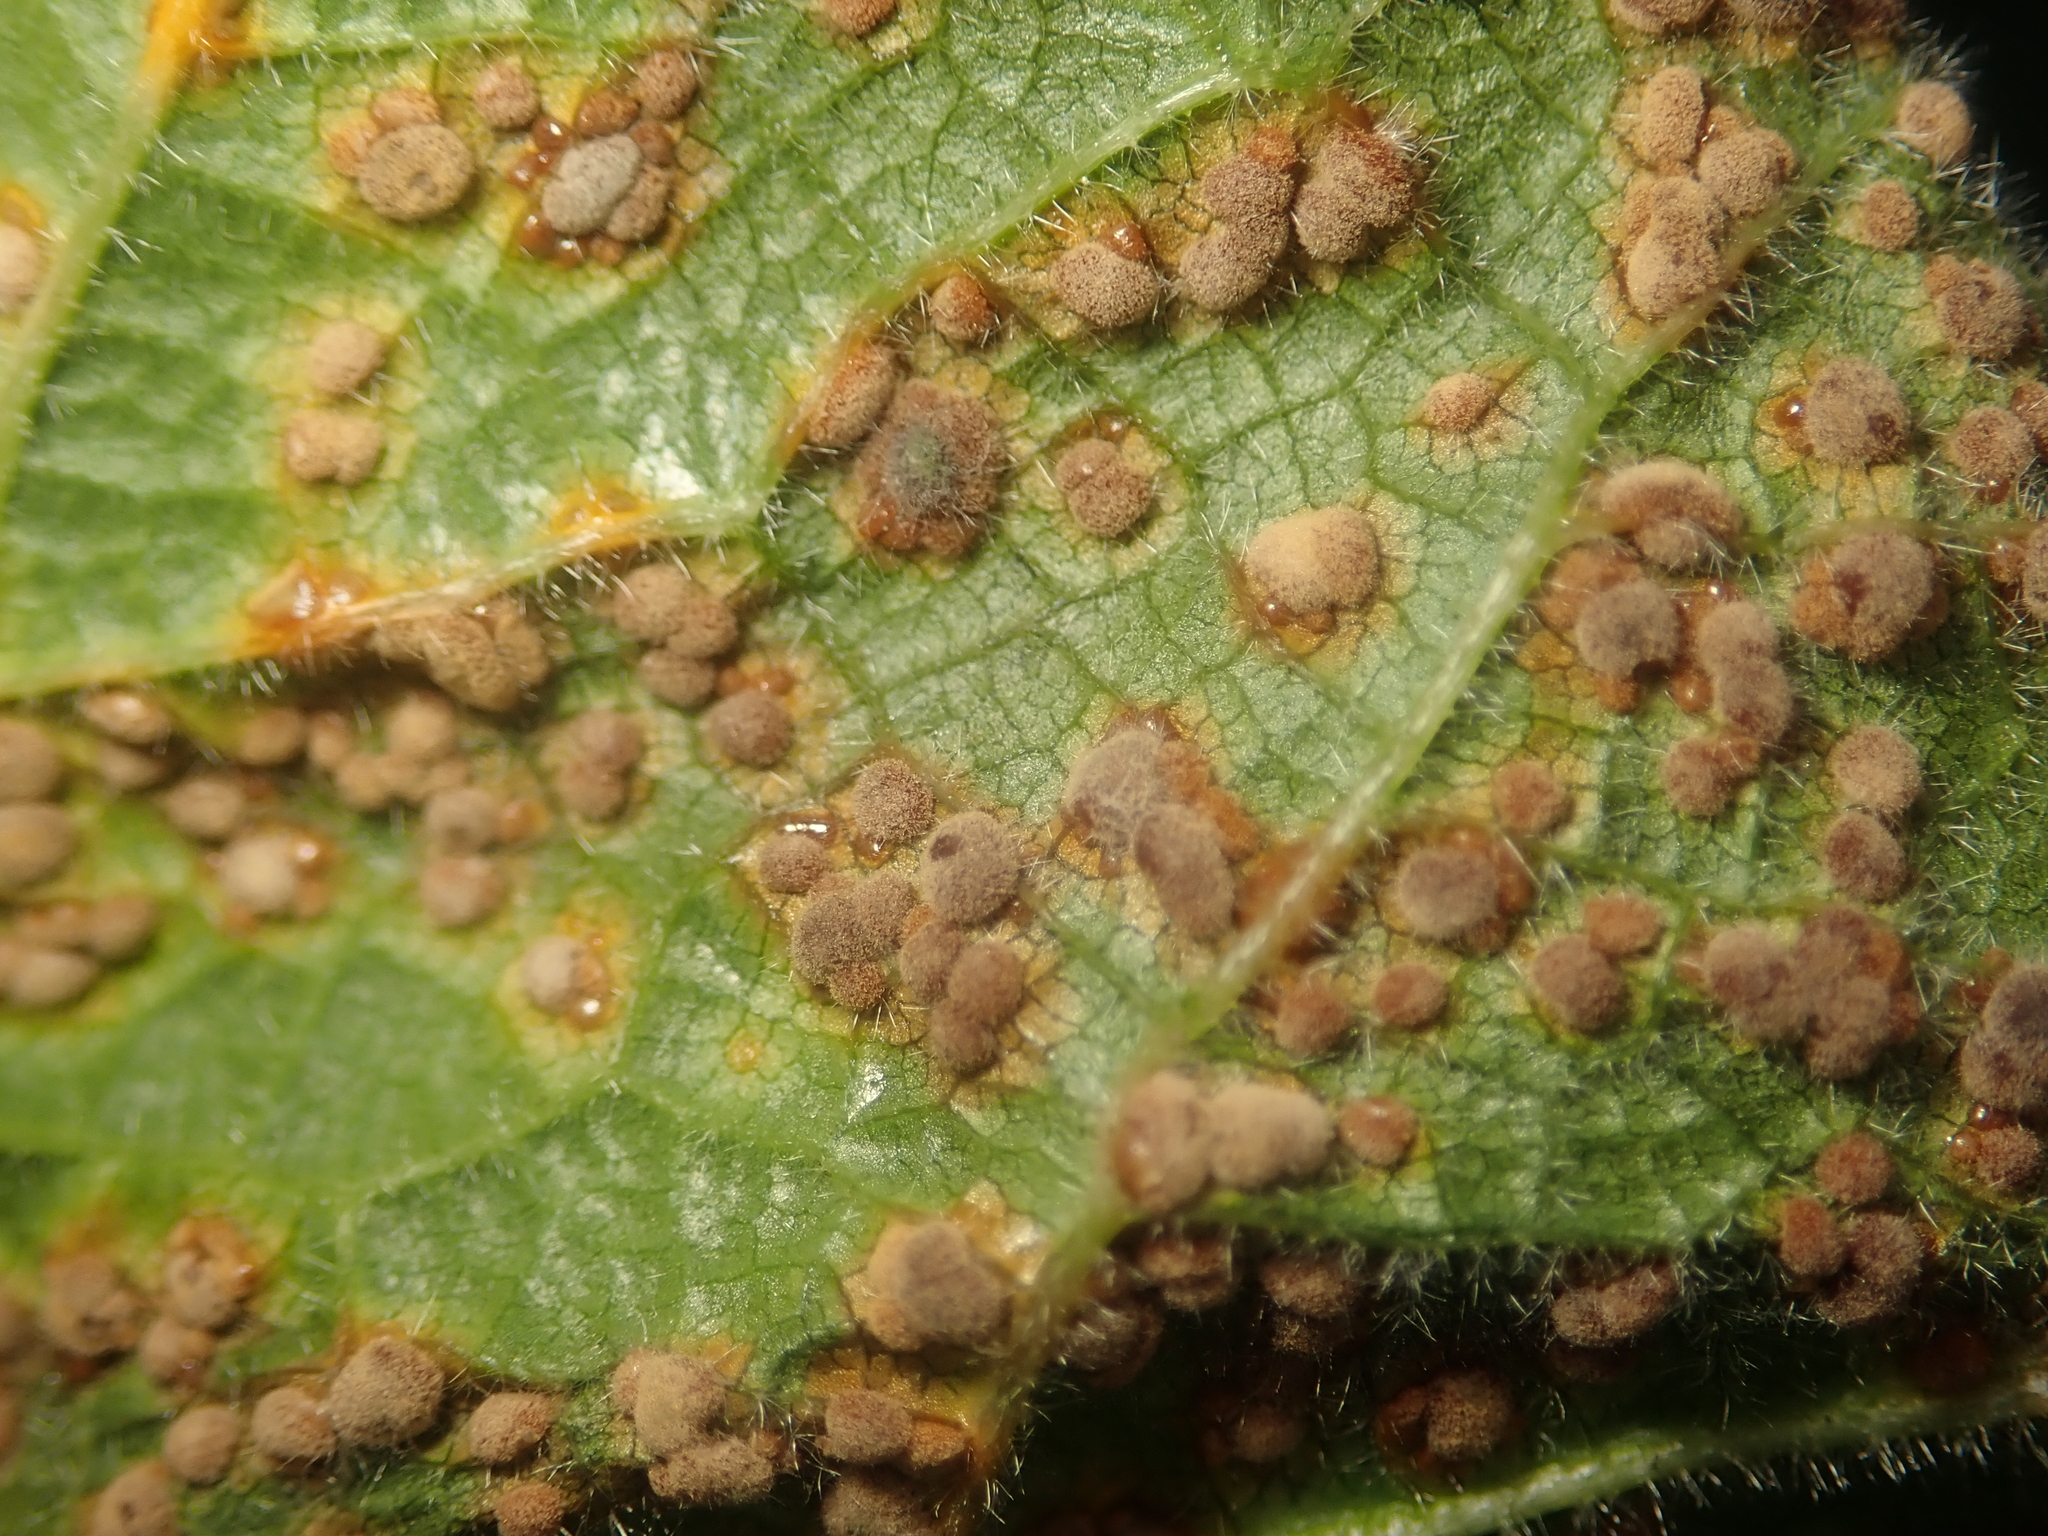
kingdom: Fungi
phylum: Basidiomycota
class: Pucciniomycetes
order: Pucciniales
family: Pucciniaceae
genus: Puccinia
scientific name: Puccinia malvacearum
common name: Hollyhock rust
